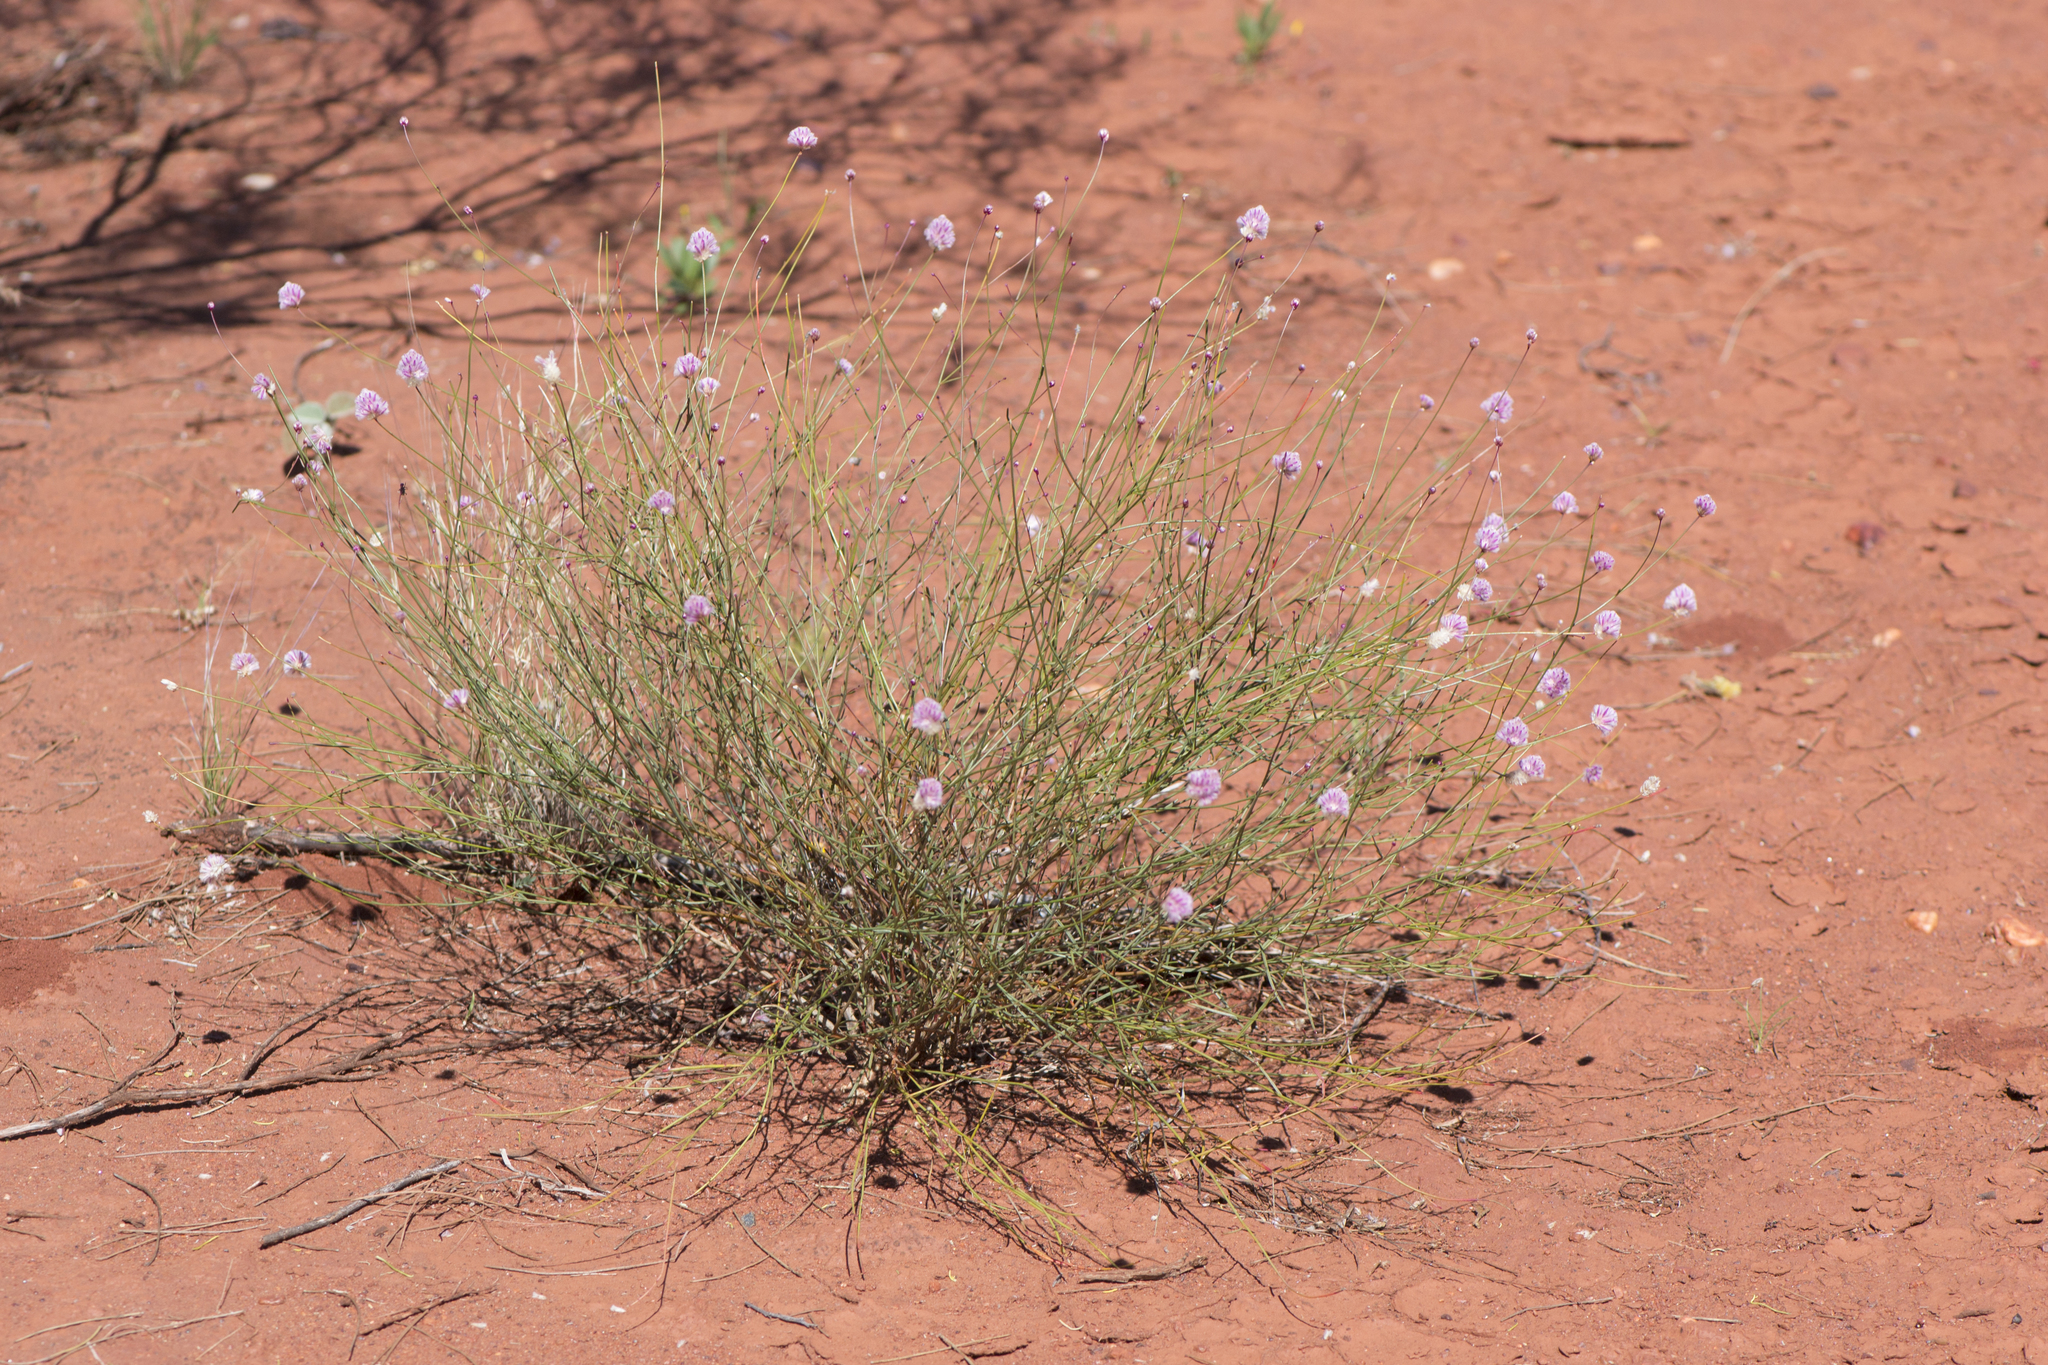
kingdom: Plantae
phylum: Tracheophyta
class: Magnoliopsida
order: Caryophyllales
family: Amaranthaceae
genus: Ptilotus
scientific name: Ptilotus schwartzii
